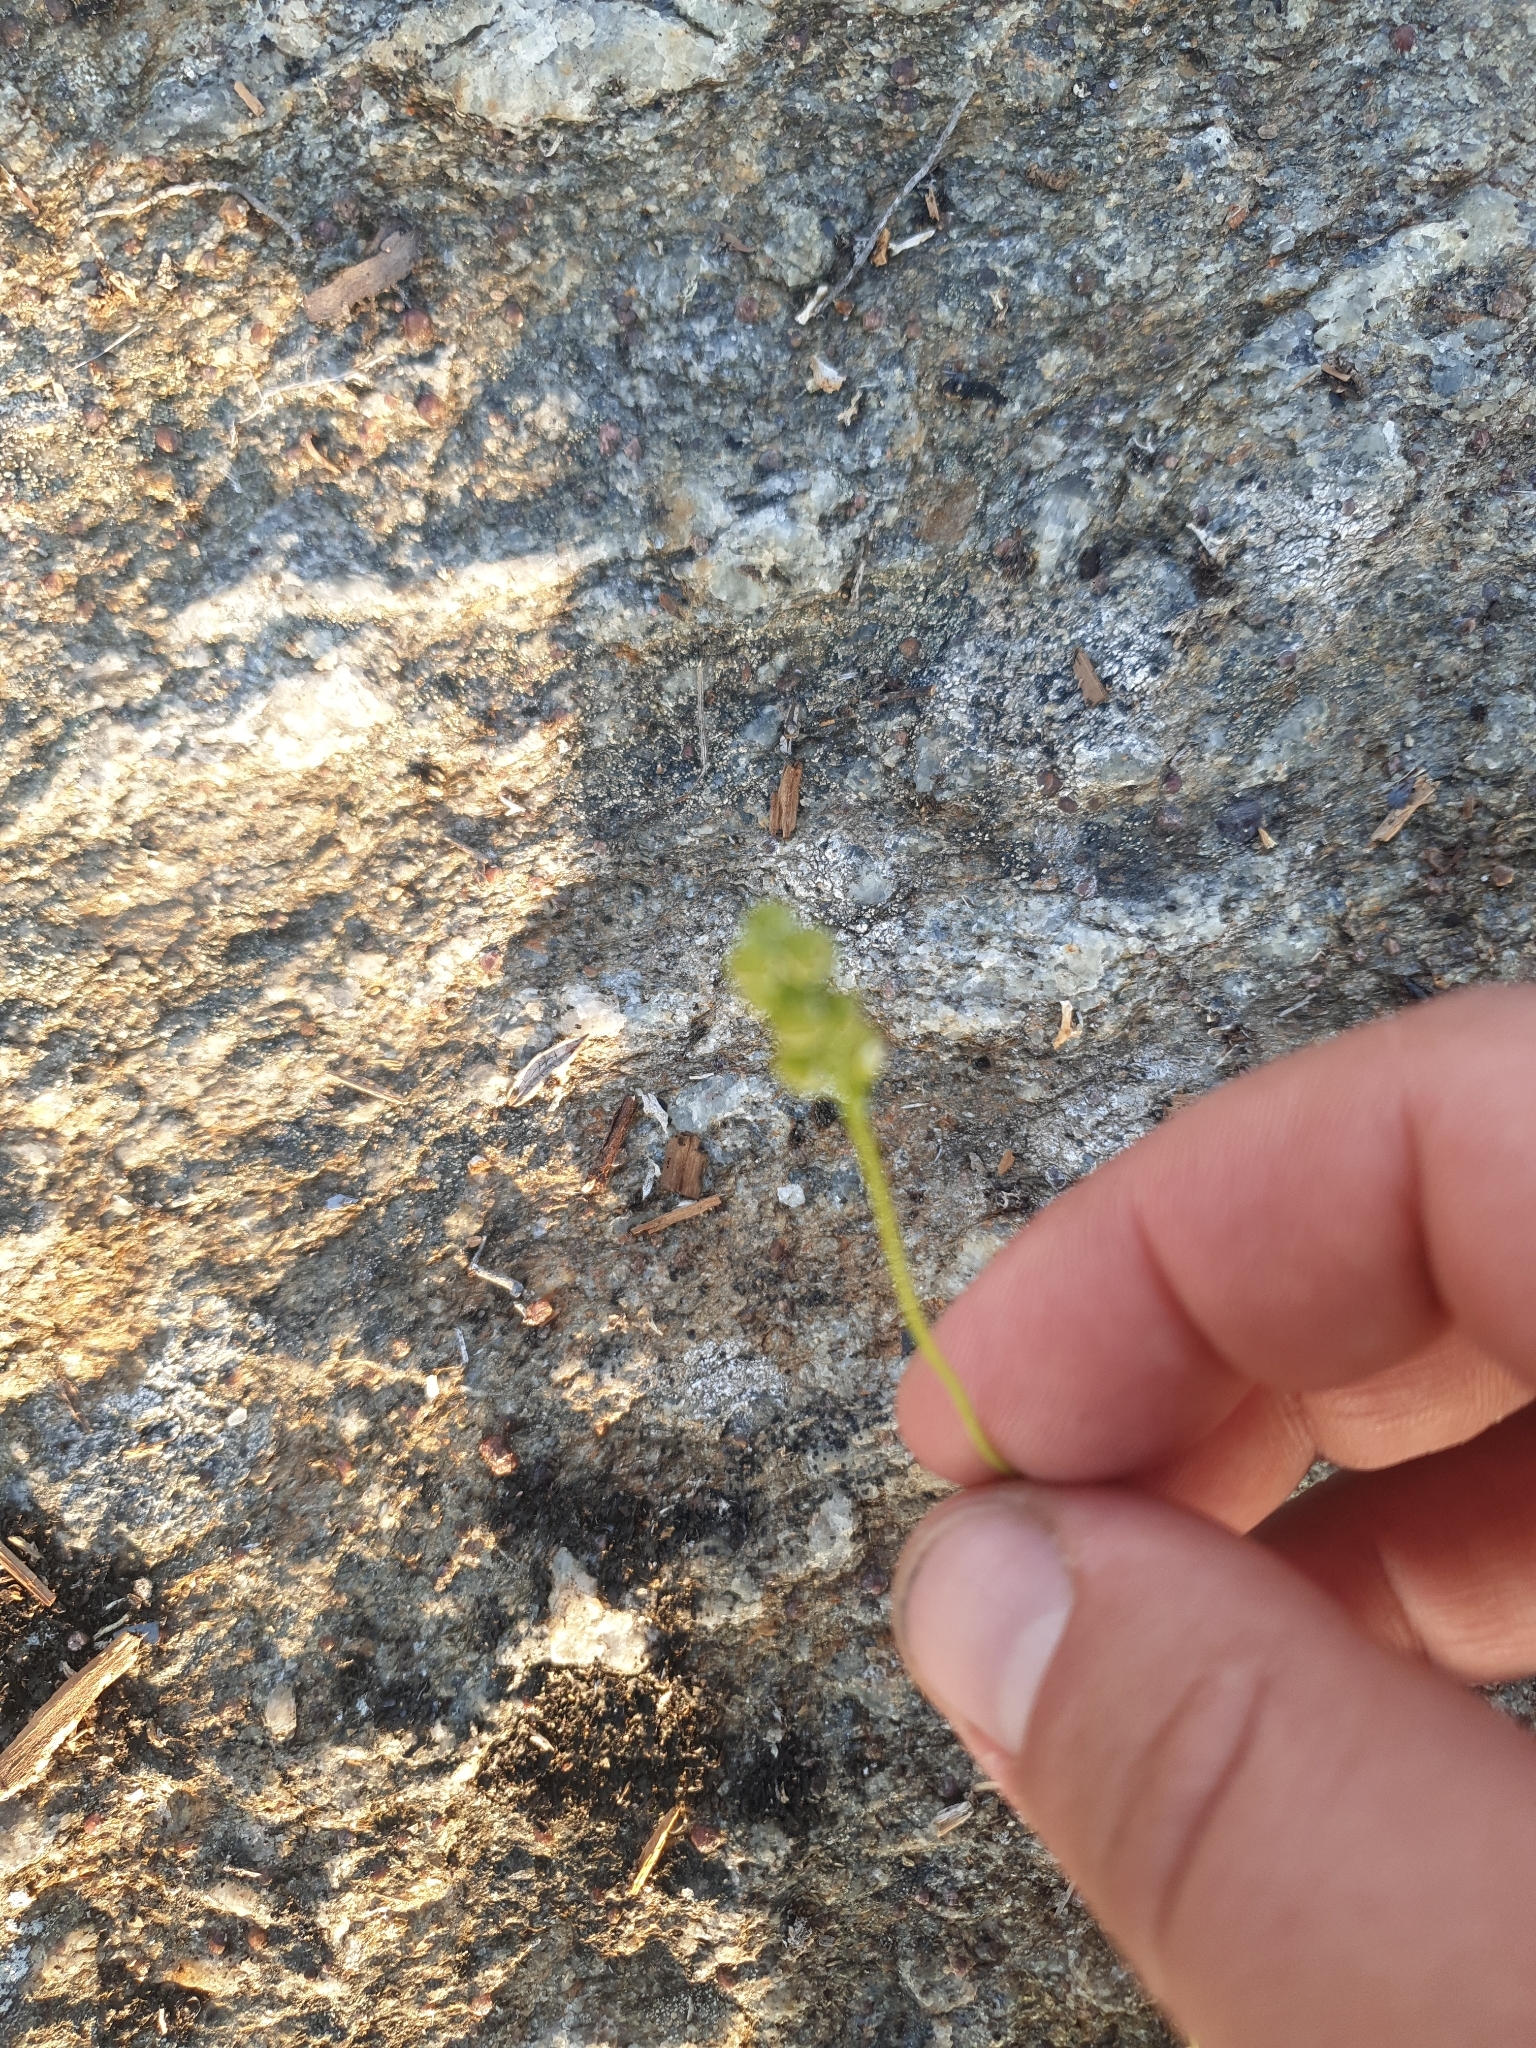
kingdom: Plantae
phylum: Tracheophyta
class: Liliopsida
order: Alismatales
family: Tofieldiaceae
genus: Tofieldia
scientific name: Tofieldia pusilla
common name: Scottish false asphodel
